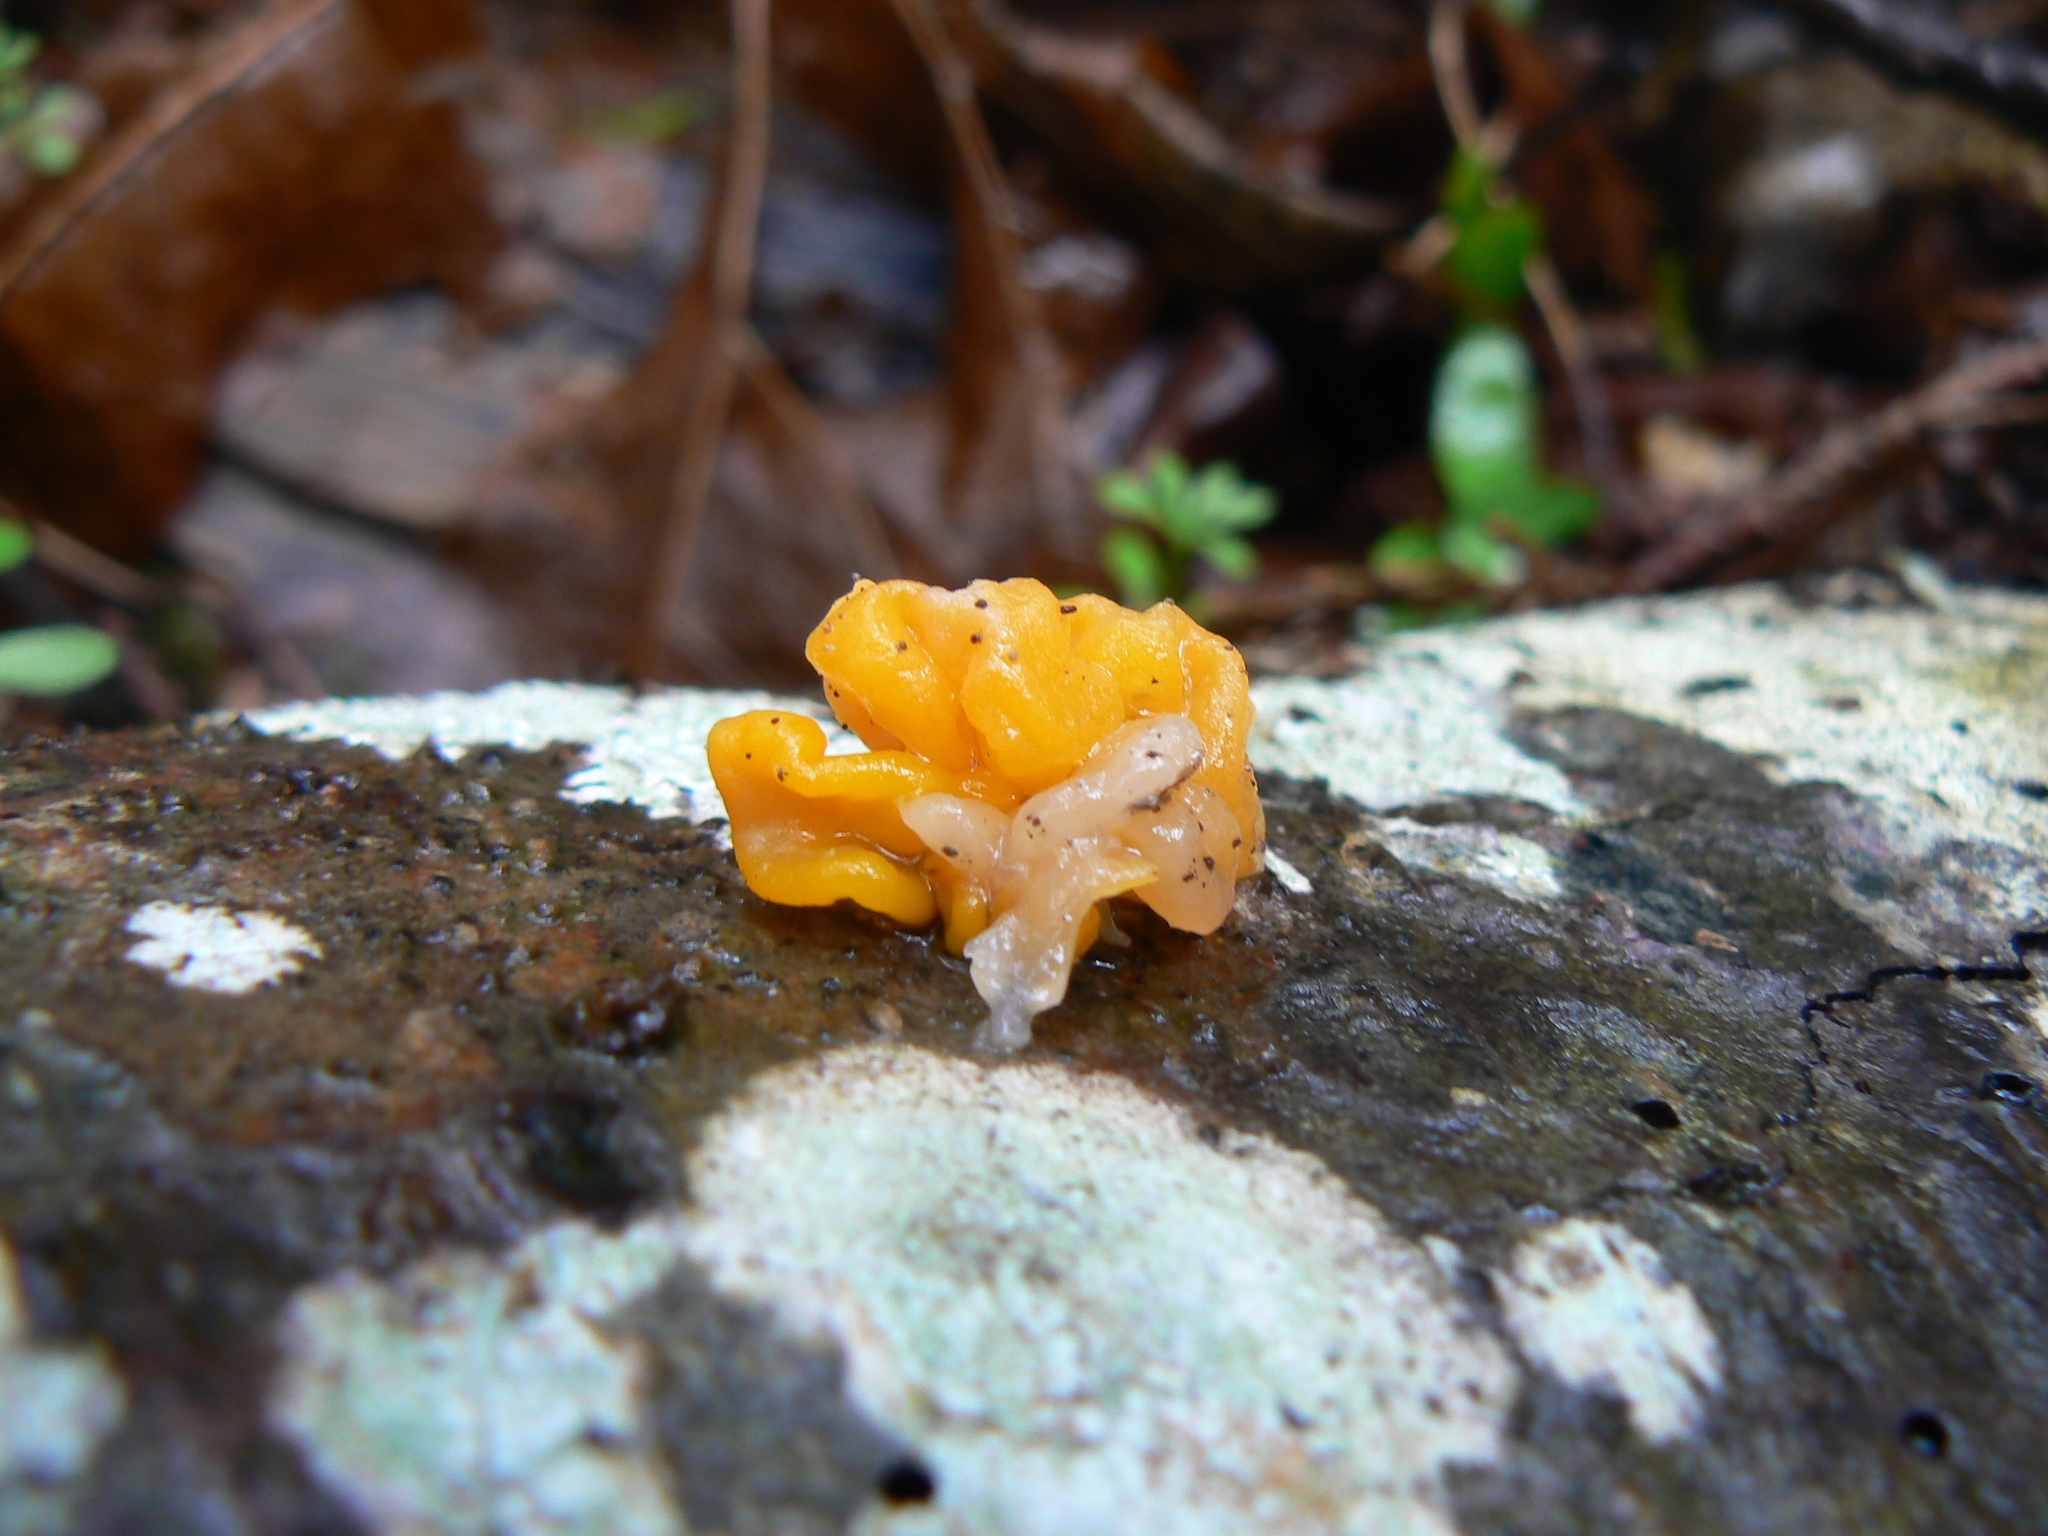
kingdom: Fungi
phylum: Basidiomycota
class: Tremellomycetes
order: Tremellales
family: Naemateliaceae
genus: Naematelia
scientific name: Naematelia aurantia
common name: Golden ear
